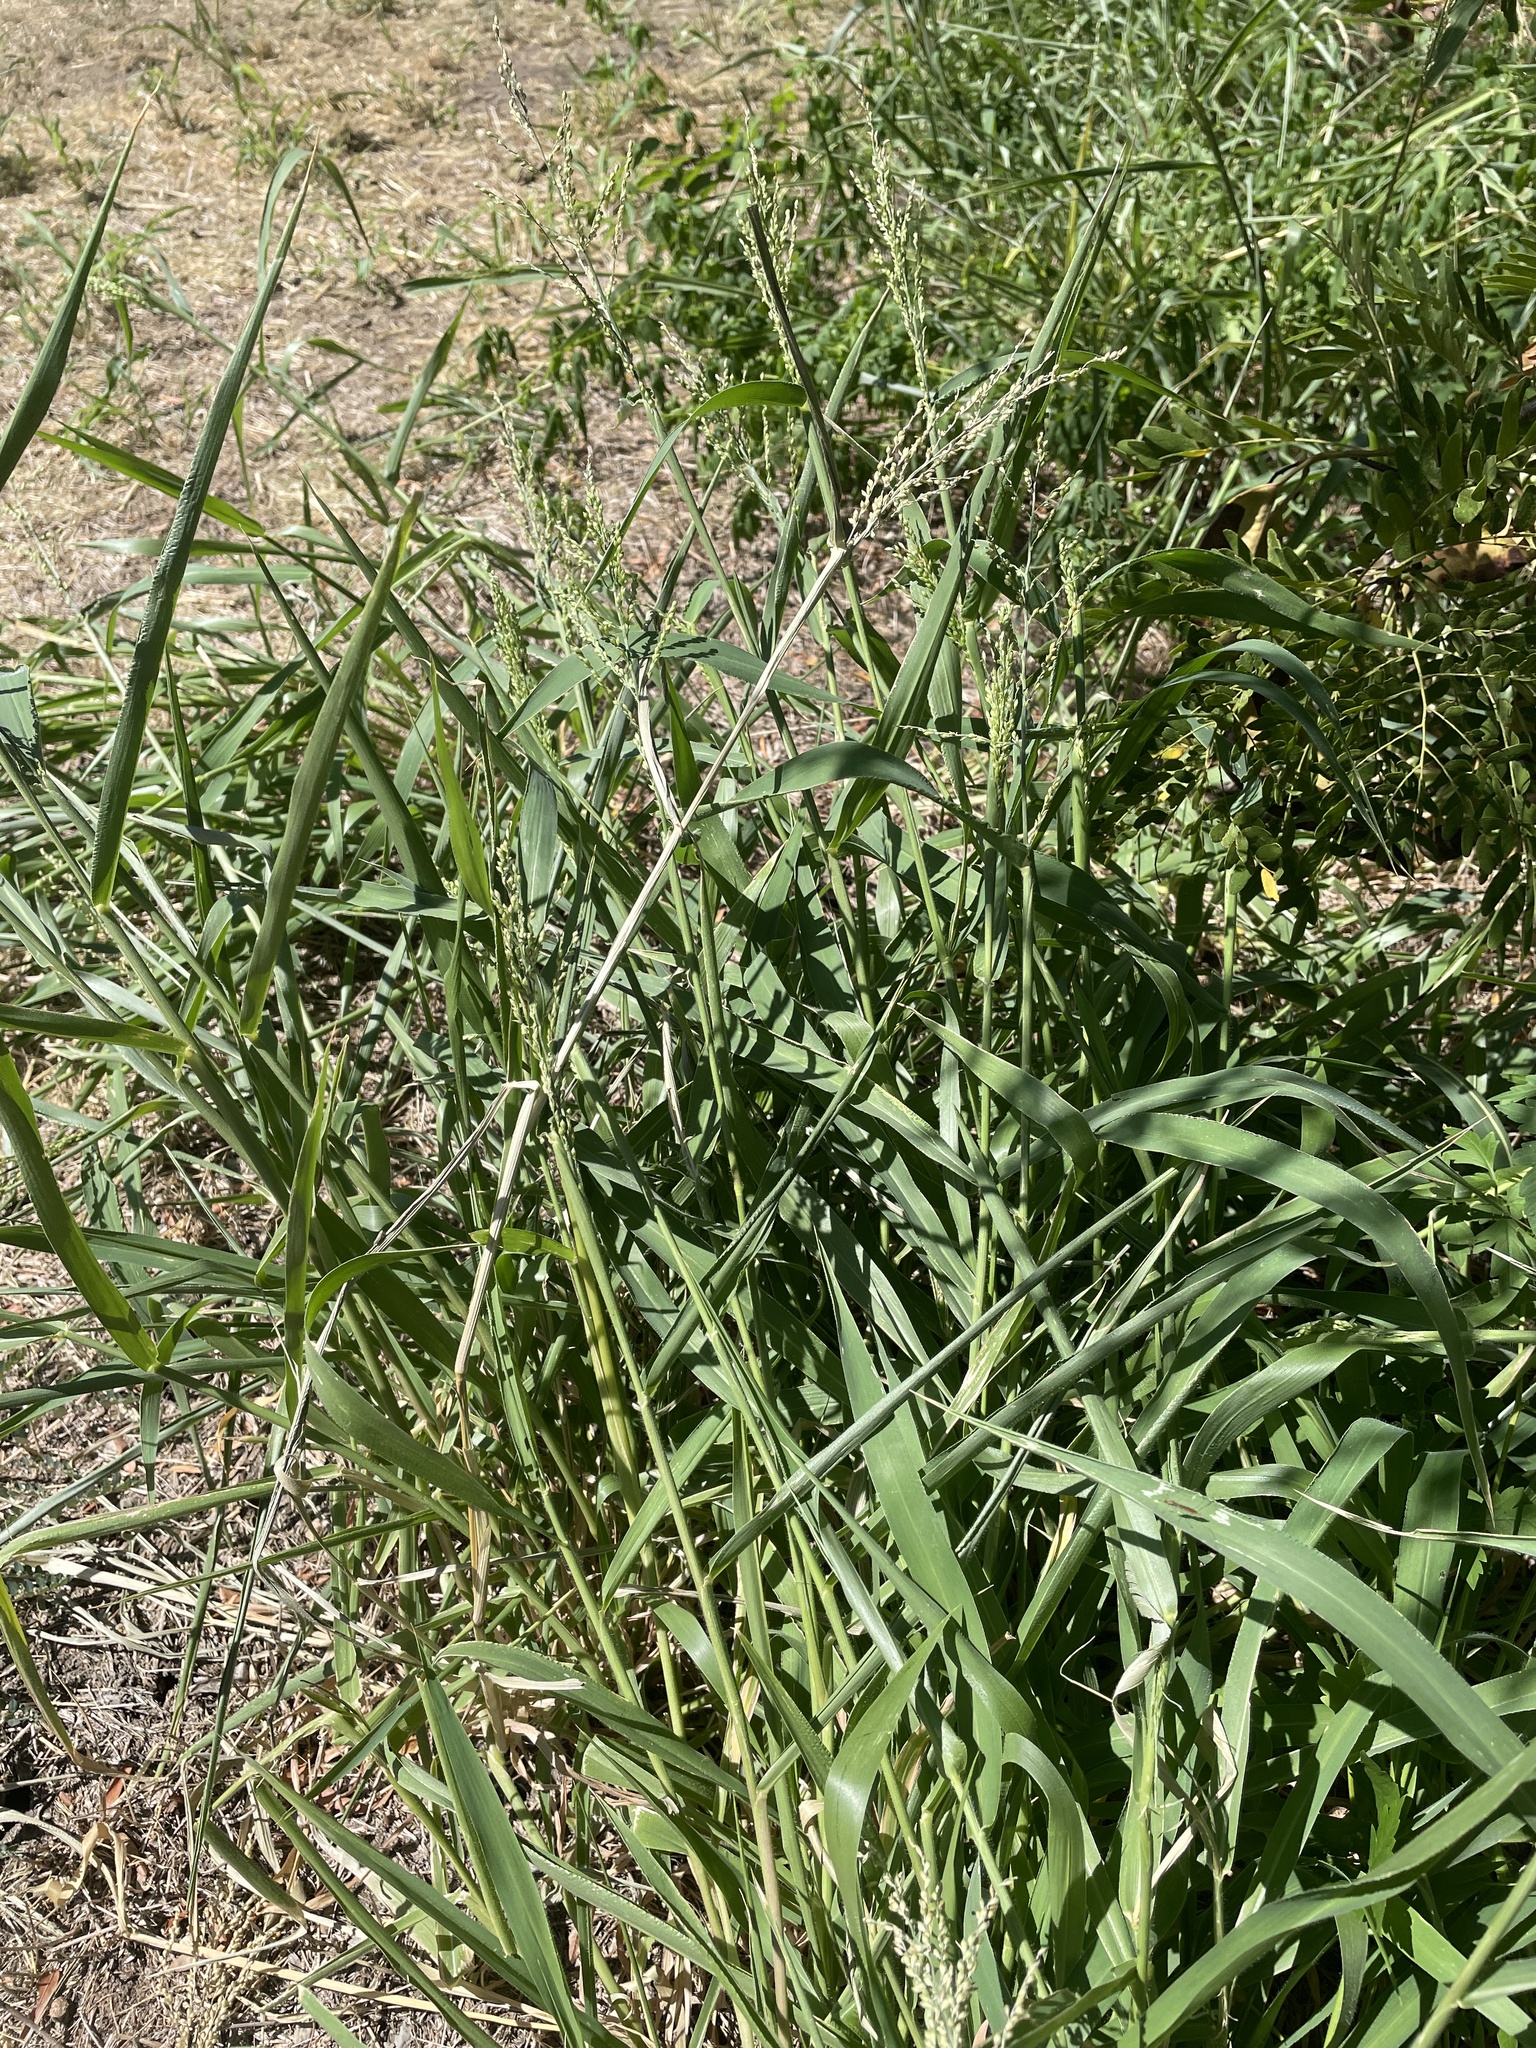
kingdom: Plantae
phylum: Tracheophyta
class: Liliopsida
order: Poales
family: Poaceae
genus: Urochloa
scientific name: Urochloa fusca
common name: Browntop signal grass
